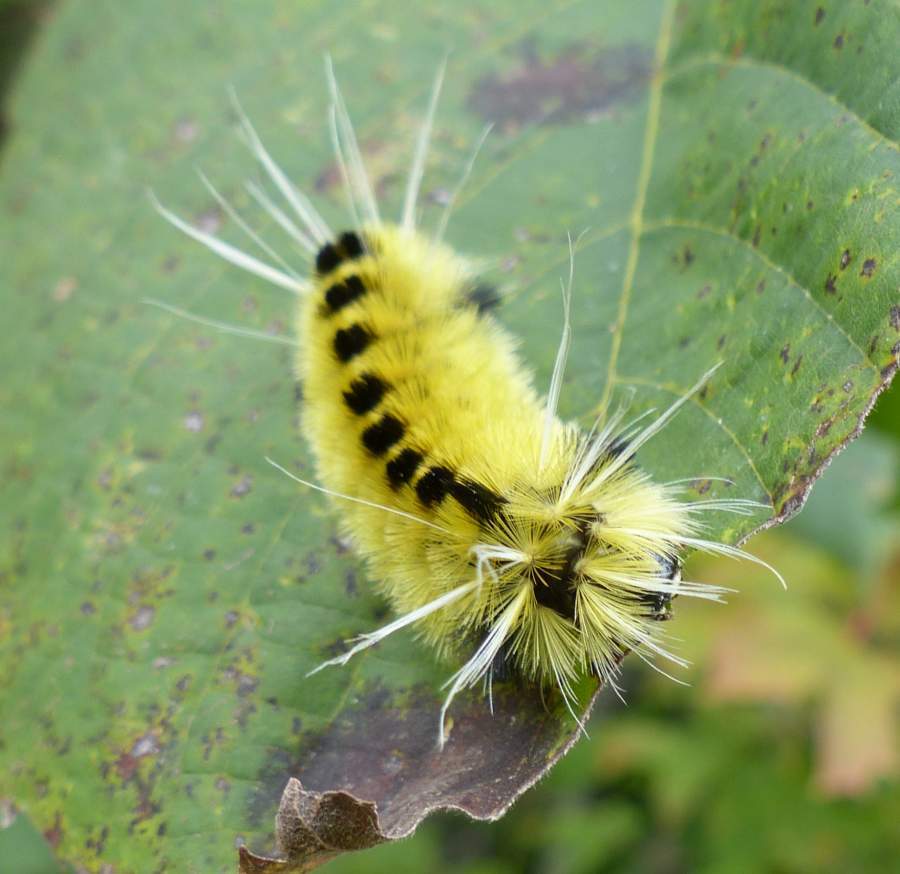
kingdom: Animalia
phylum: Arthropoda
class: Insecta
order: Lepidoptera
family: Erebidae
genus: Lophocampa
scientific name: Lophocampa maculata
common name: Spotted tussock moth
